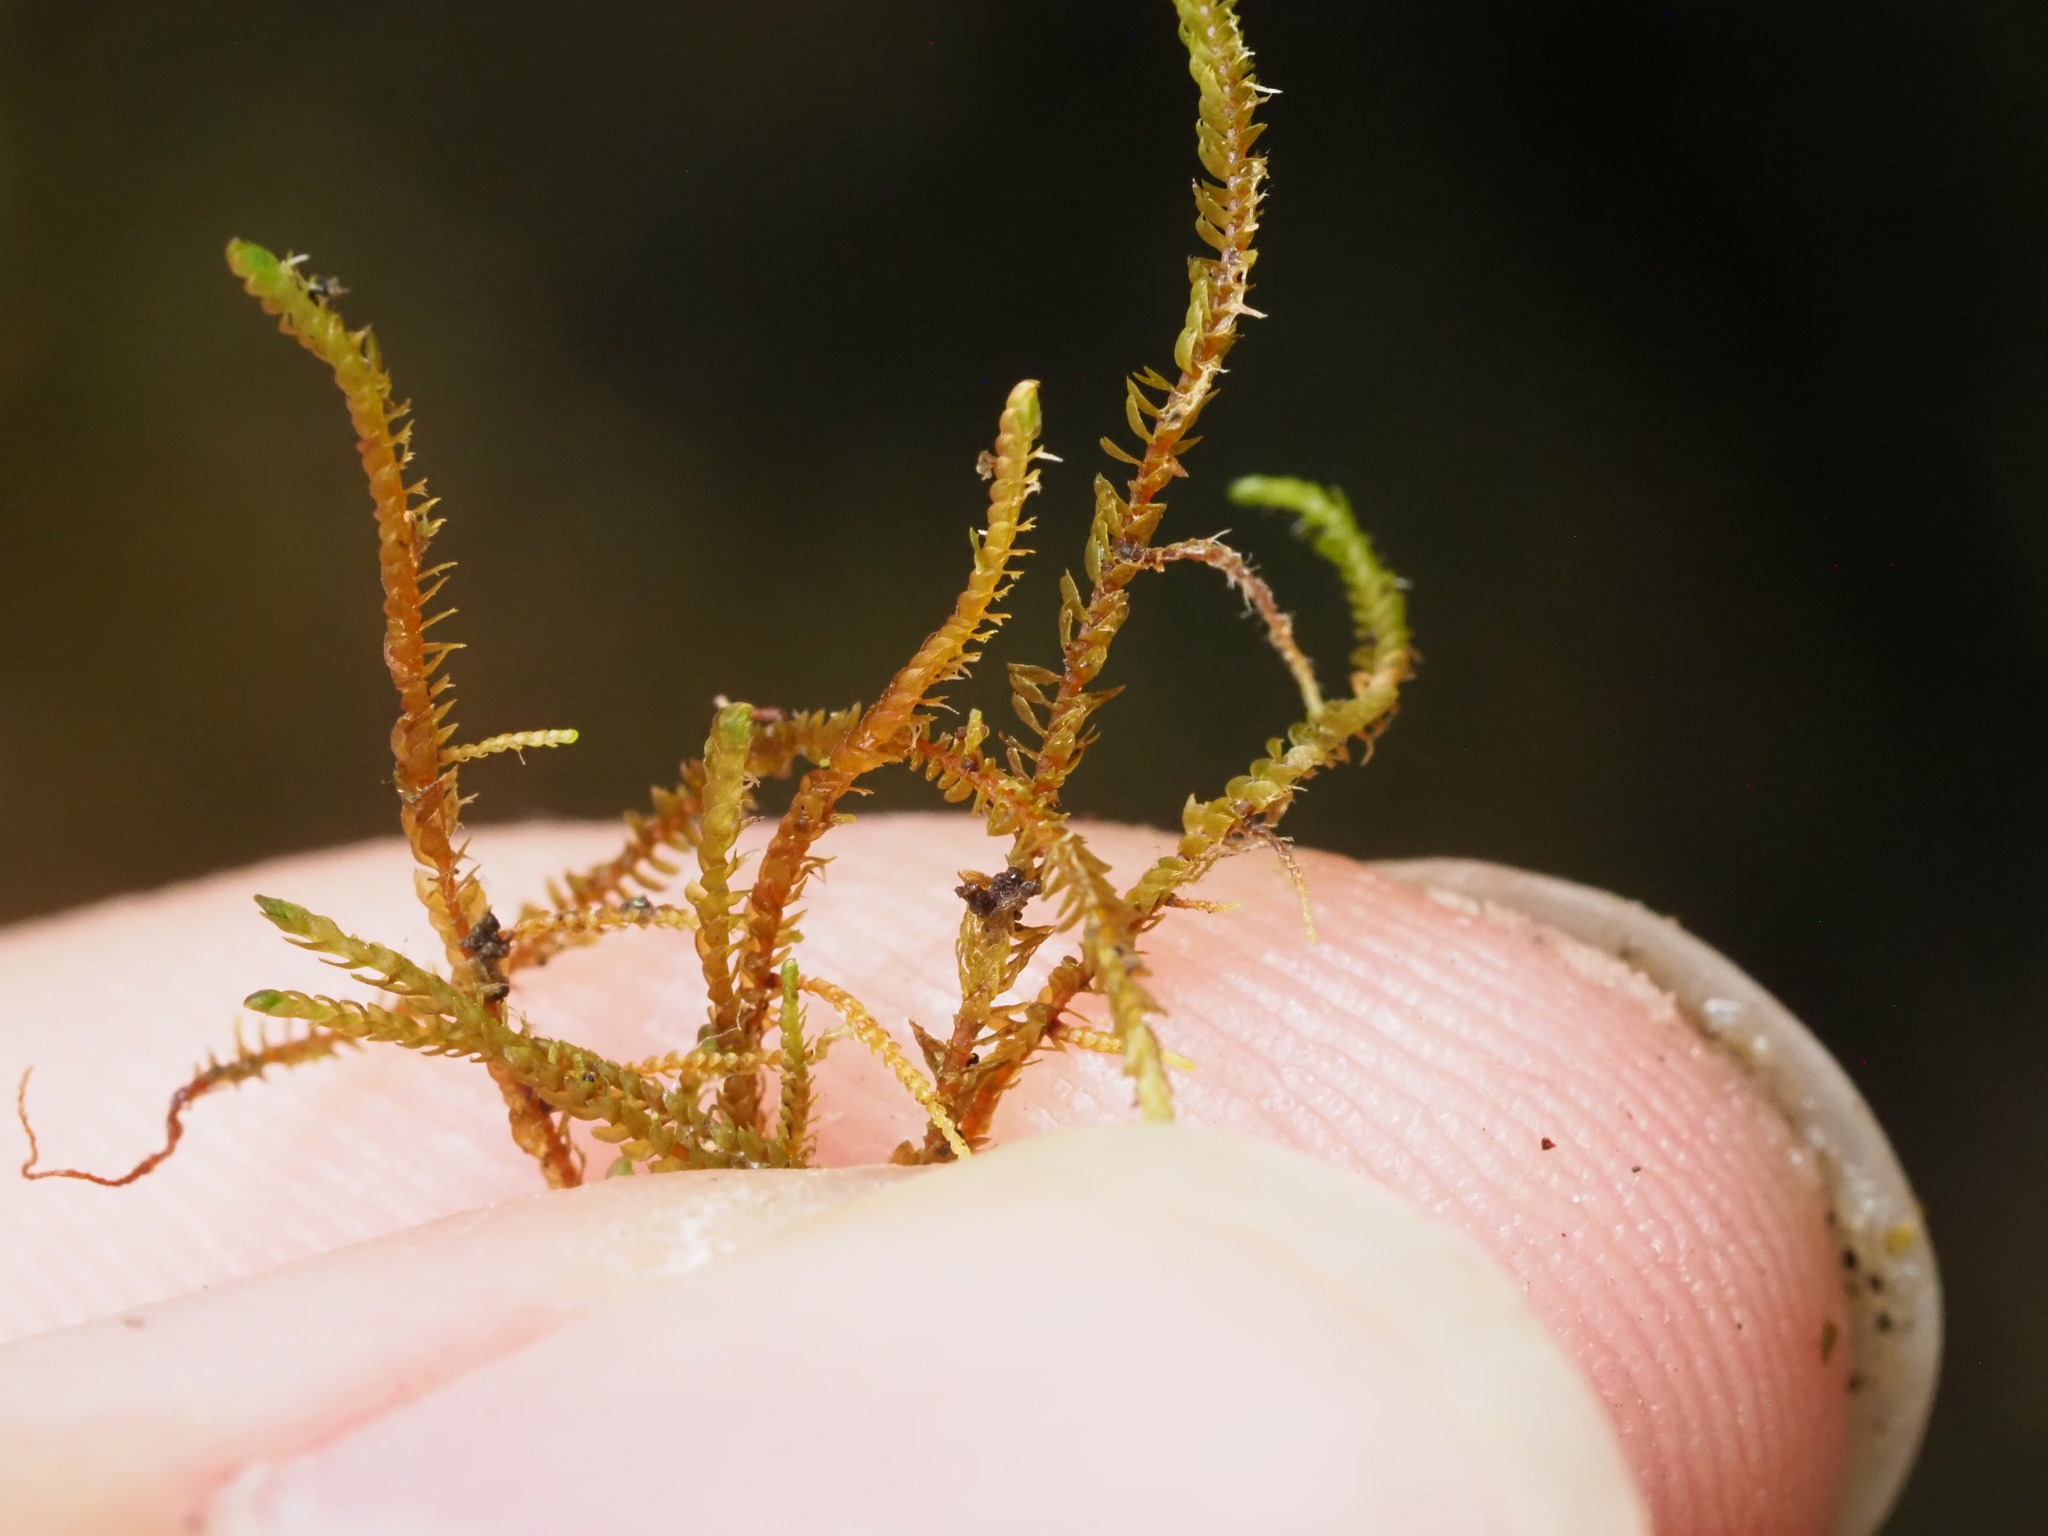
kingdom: Plantae
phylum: Marchantiophyta
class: Jungermanniopsida
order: Jungermanniales
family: Herbertaceae
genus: Herbertus
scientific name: Herbertus gracilis
